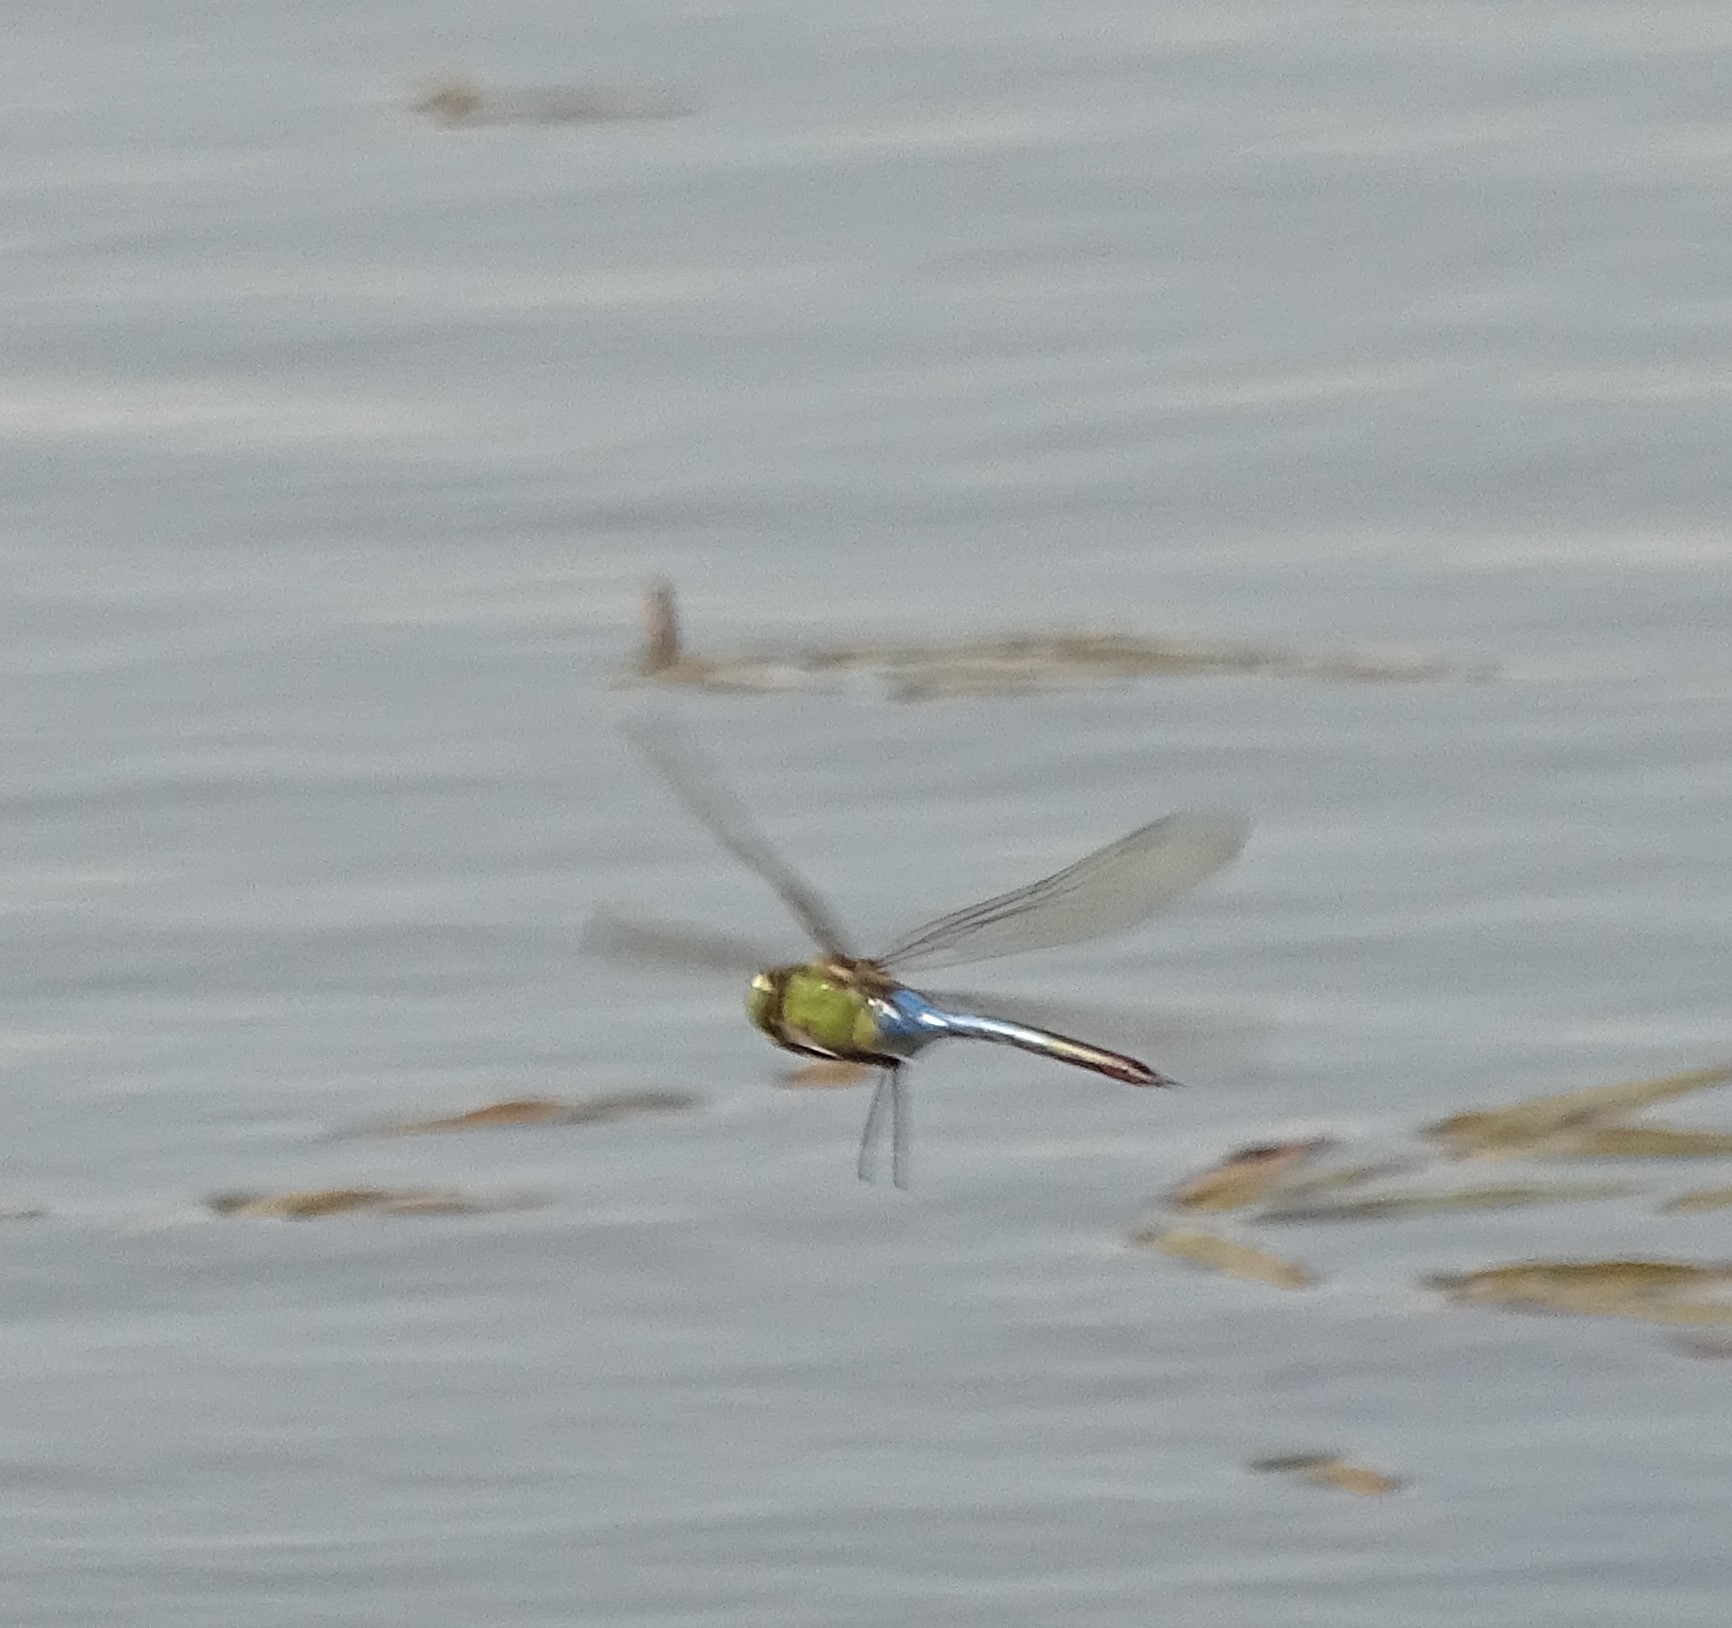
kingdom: Animalia
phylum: Arthropoda
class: Insecta
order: Odonata
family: Aeshnidae
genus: Anax
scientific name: Anax junius
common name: Common green darner
